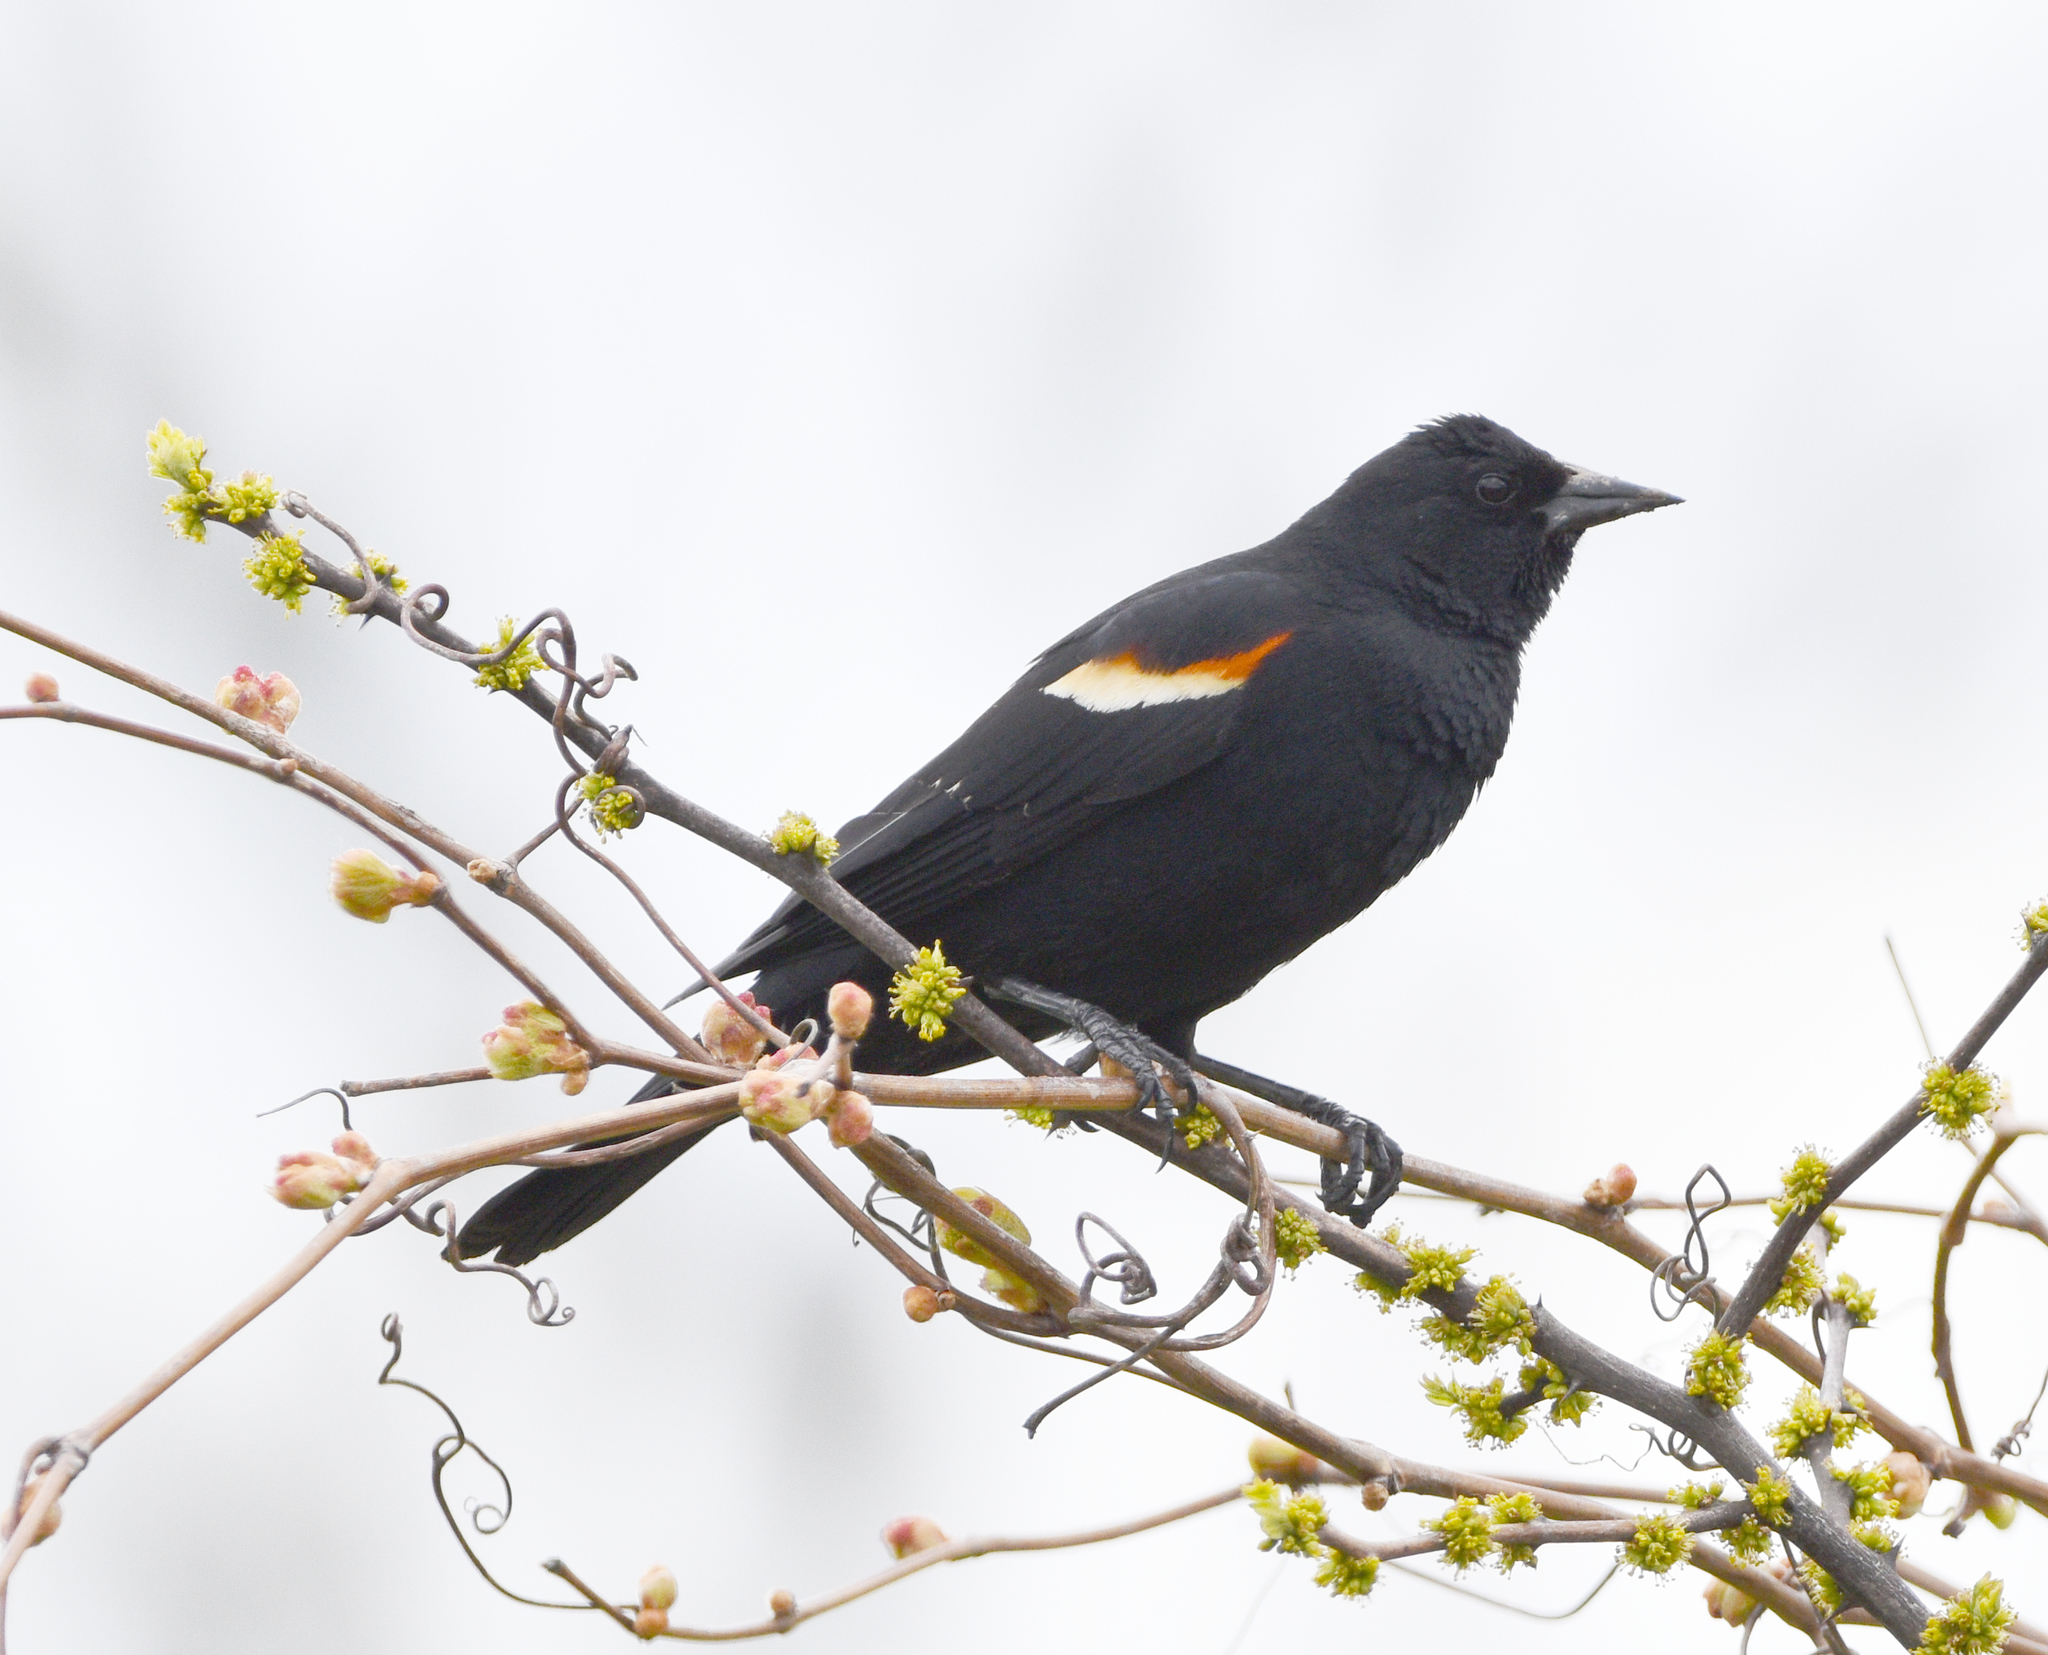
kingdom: Animalia
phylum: Chordata
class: Aves
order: Passeriformes
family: Icteridae
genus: Agelaius
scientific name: Agelaius phoeniceus
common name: Red-winged blackbird
